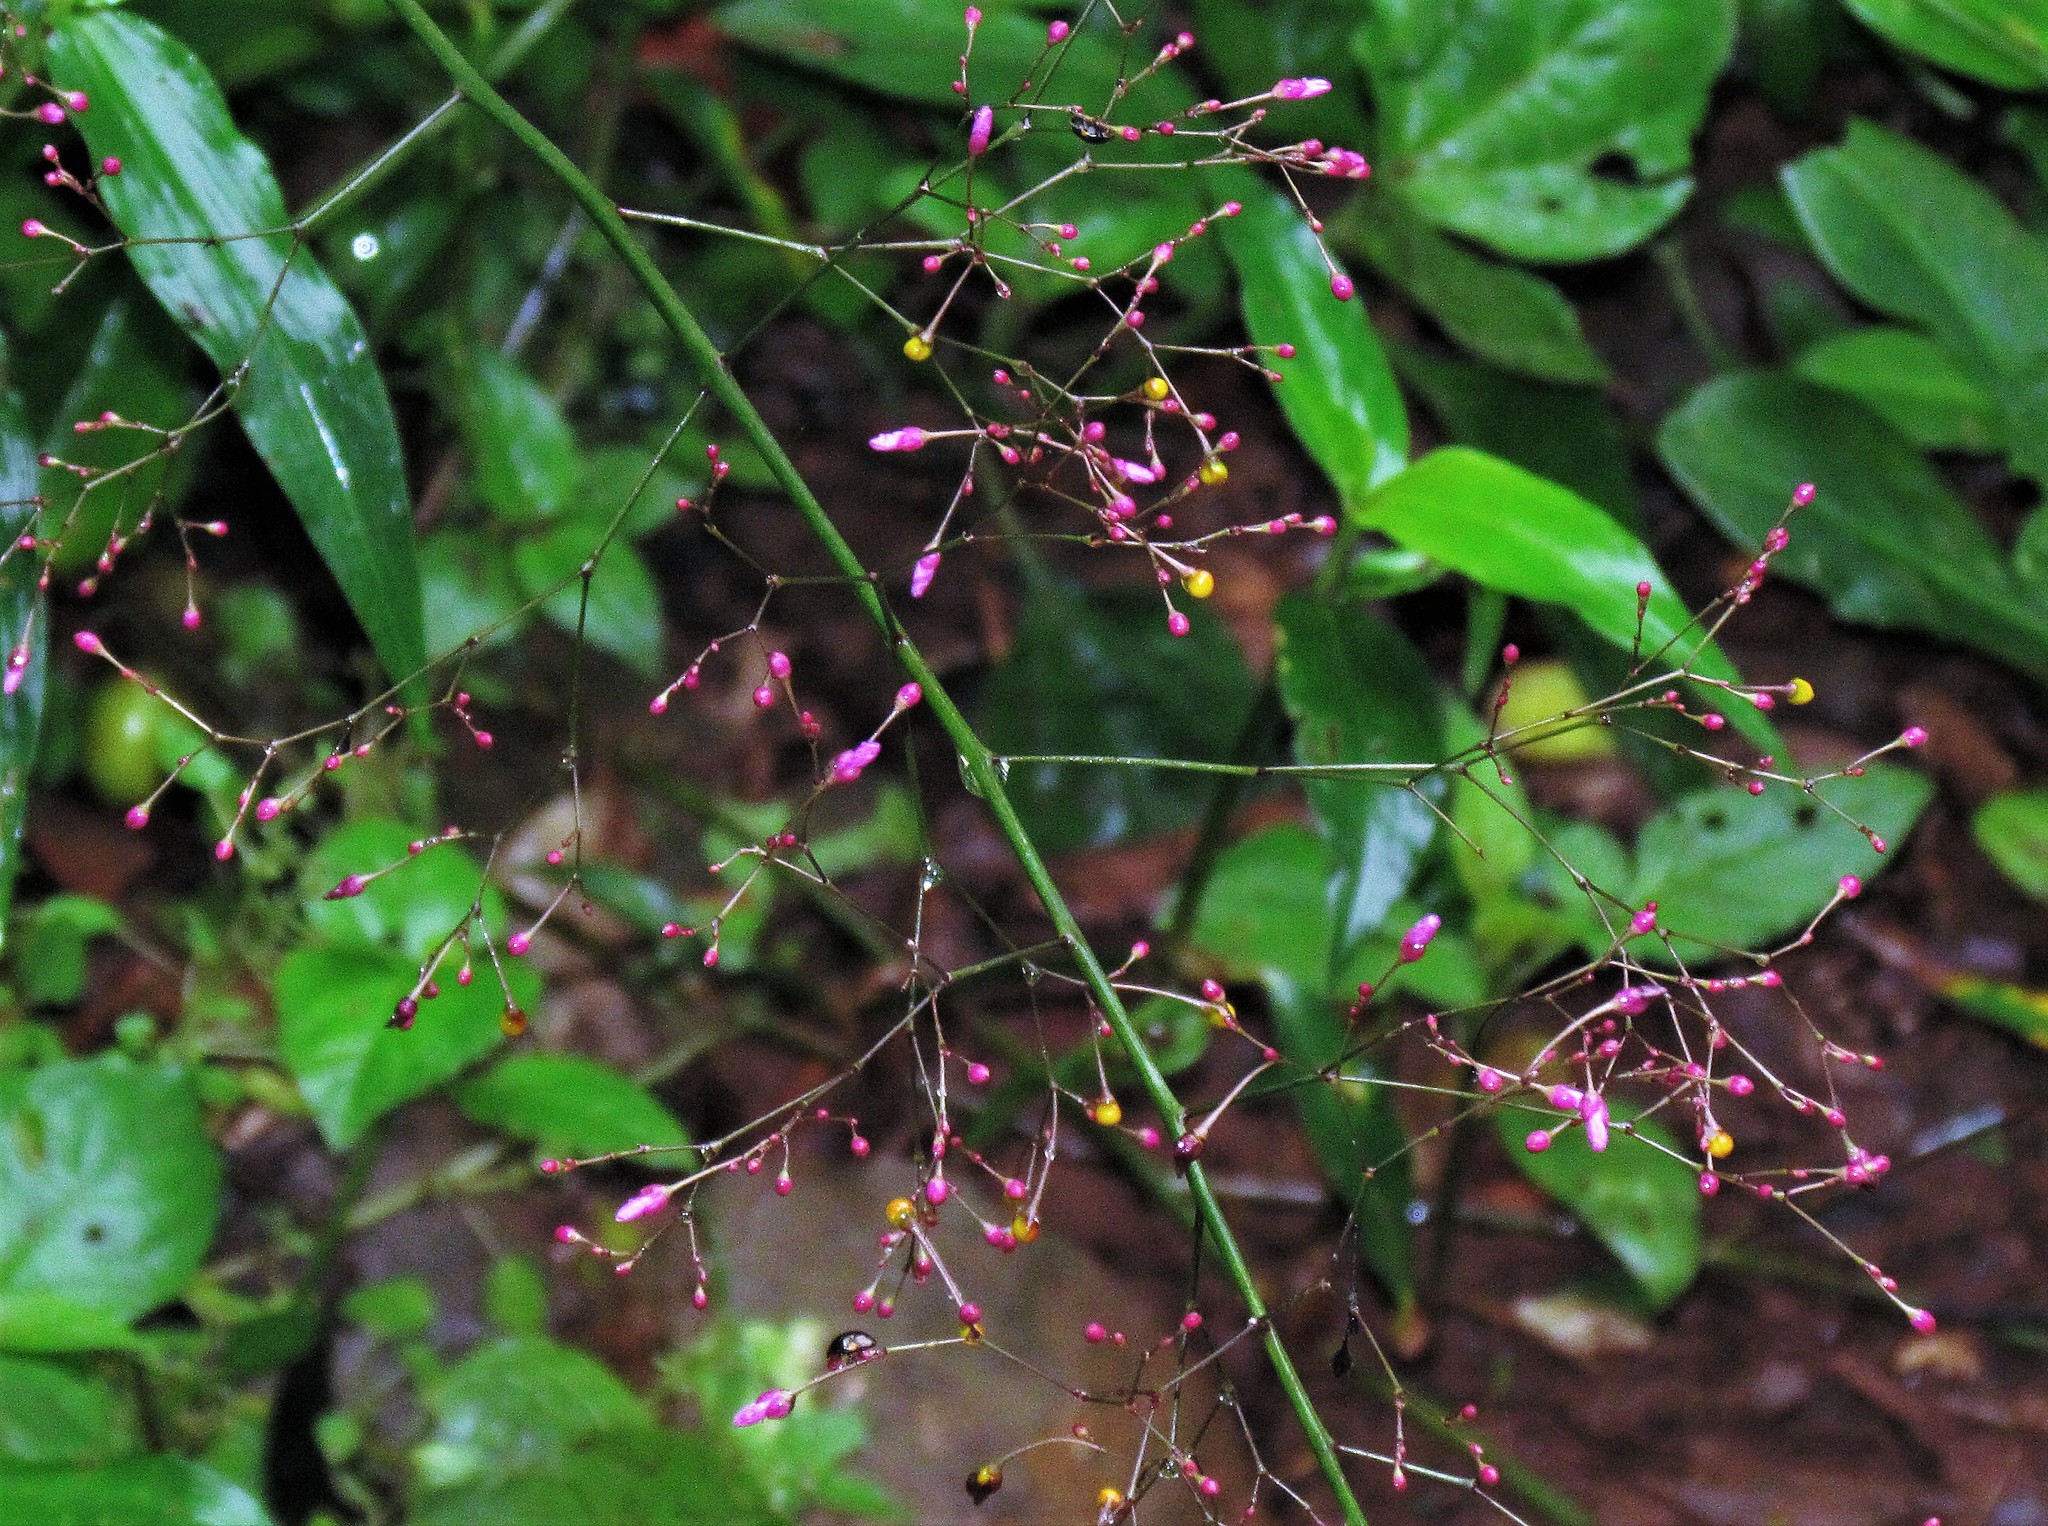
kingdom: Plantae
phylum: Tracheophyta
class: Magnoliopsida
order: Caryophyllales
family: Talinaceae
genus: Talinum
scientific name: Talinum paniculatum
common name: Jewels of opar
